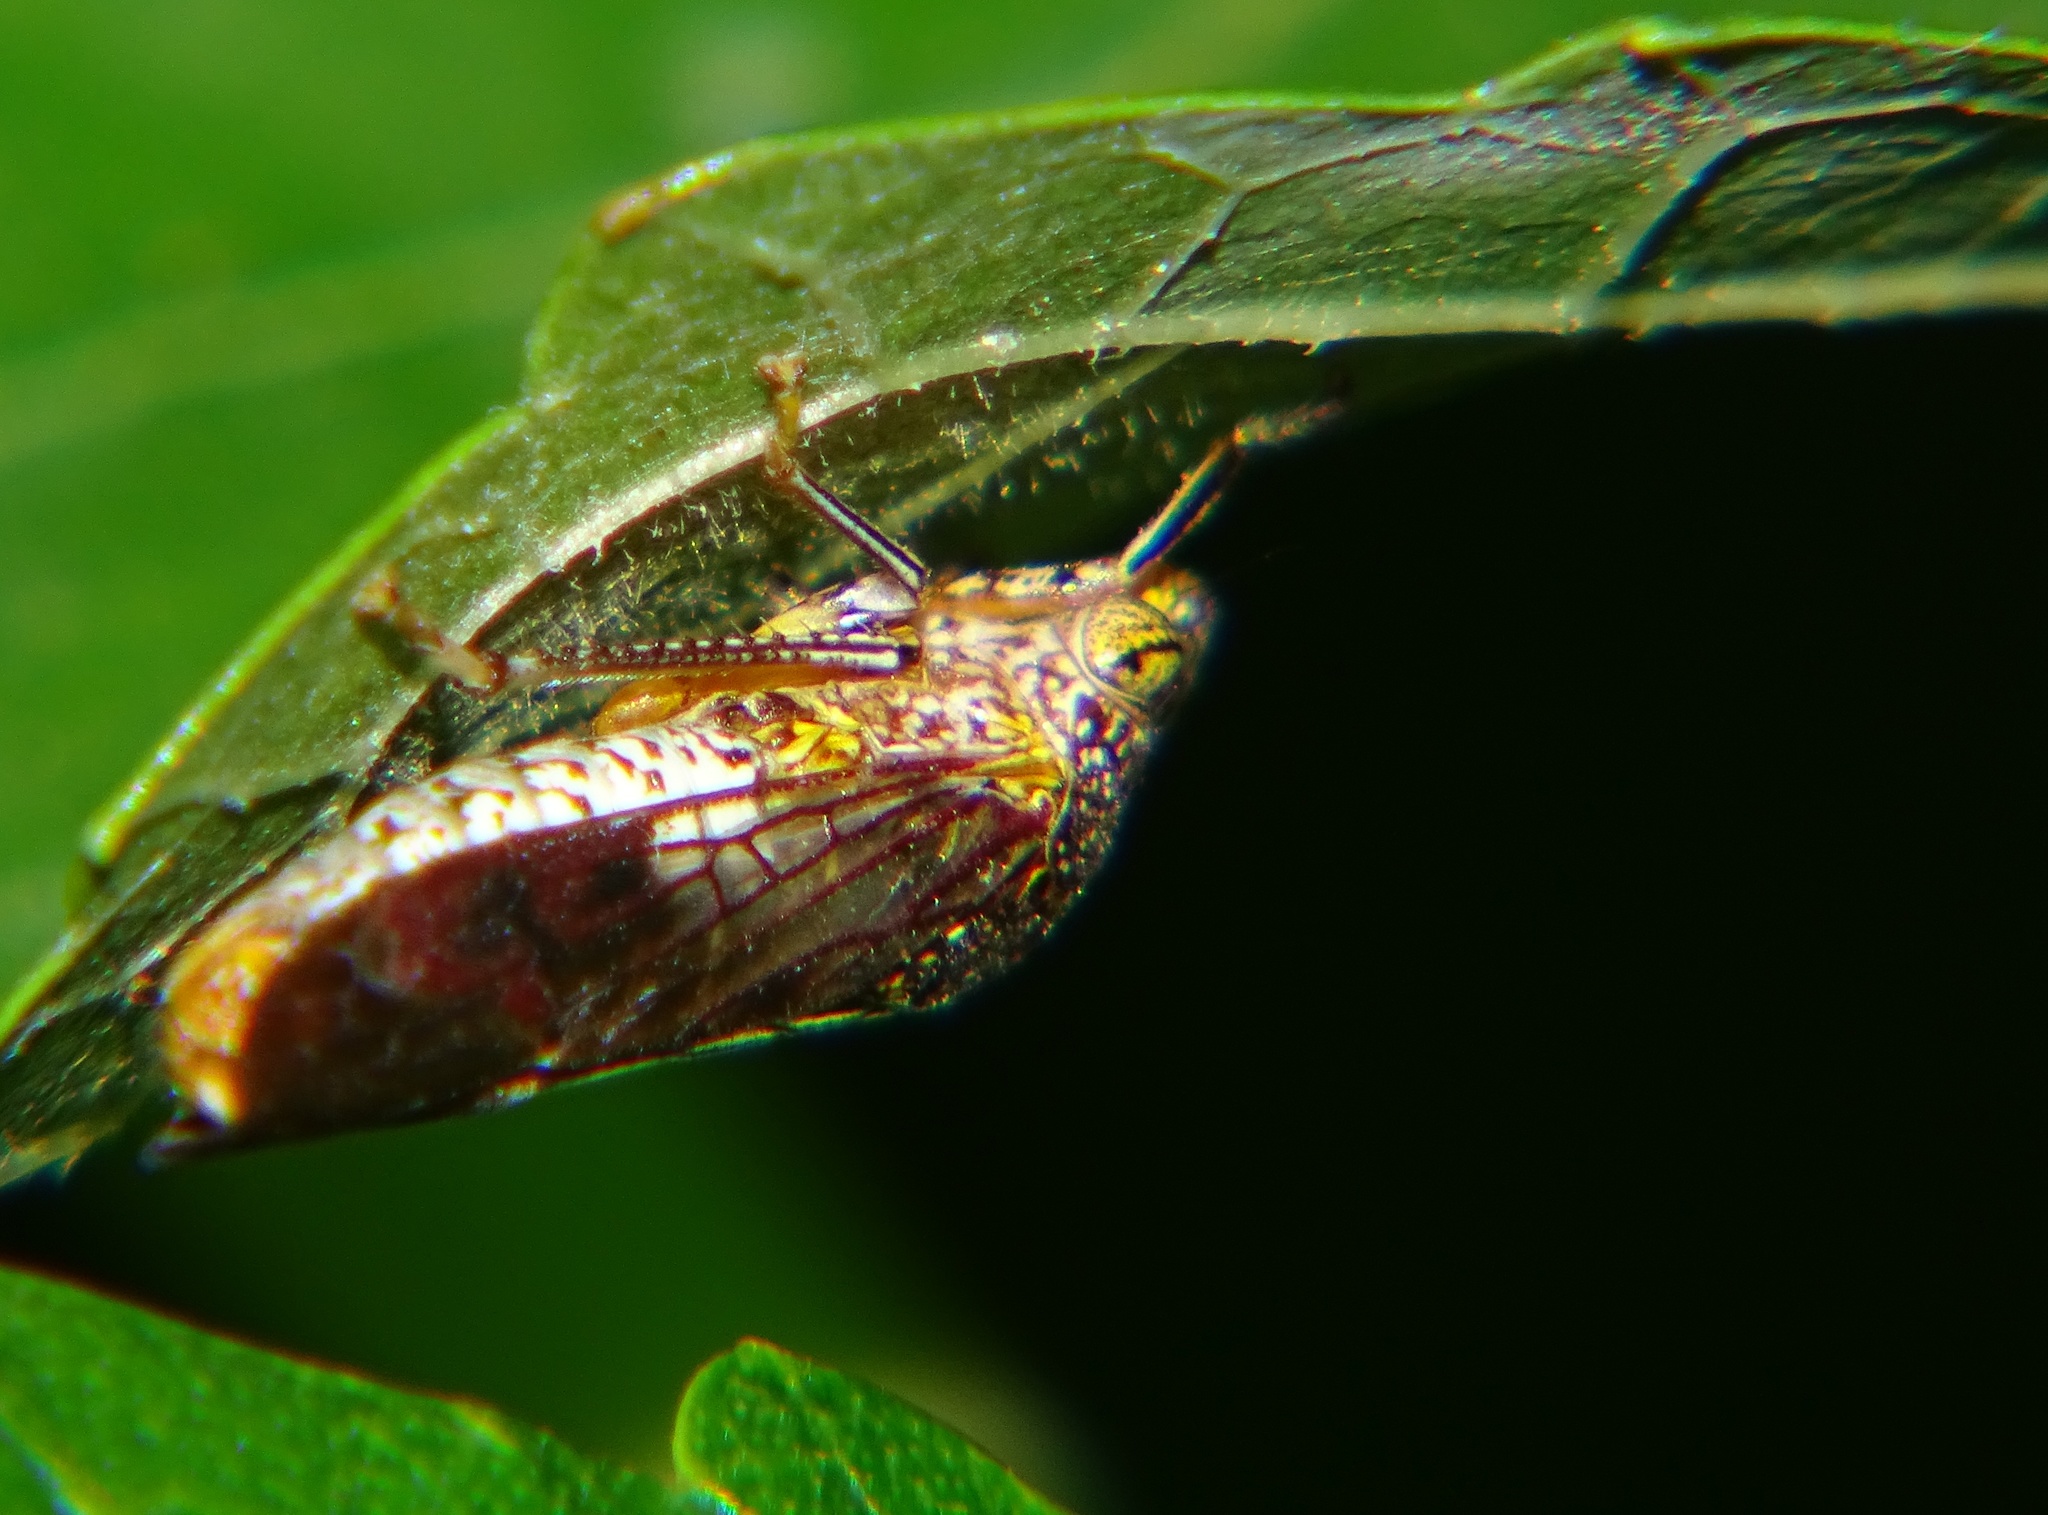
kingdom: Animalia
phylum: Arthropoda
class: Insecta
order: Hemiptera
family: Cicadellidae
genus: Homalodisca
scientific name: Homalodisca vitripennis
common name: Glassy-winged sharpshooter
